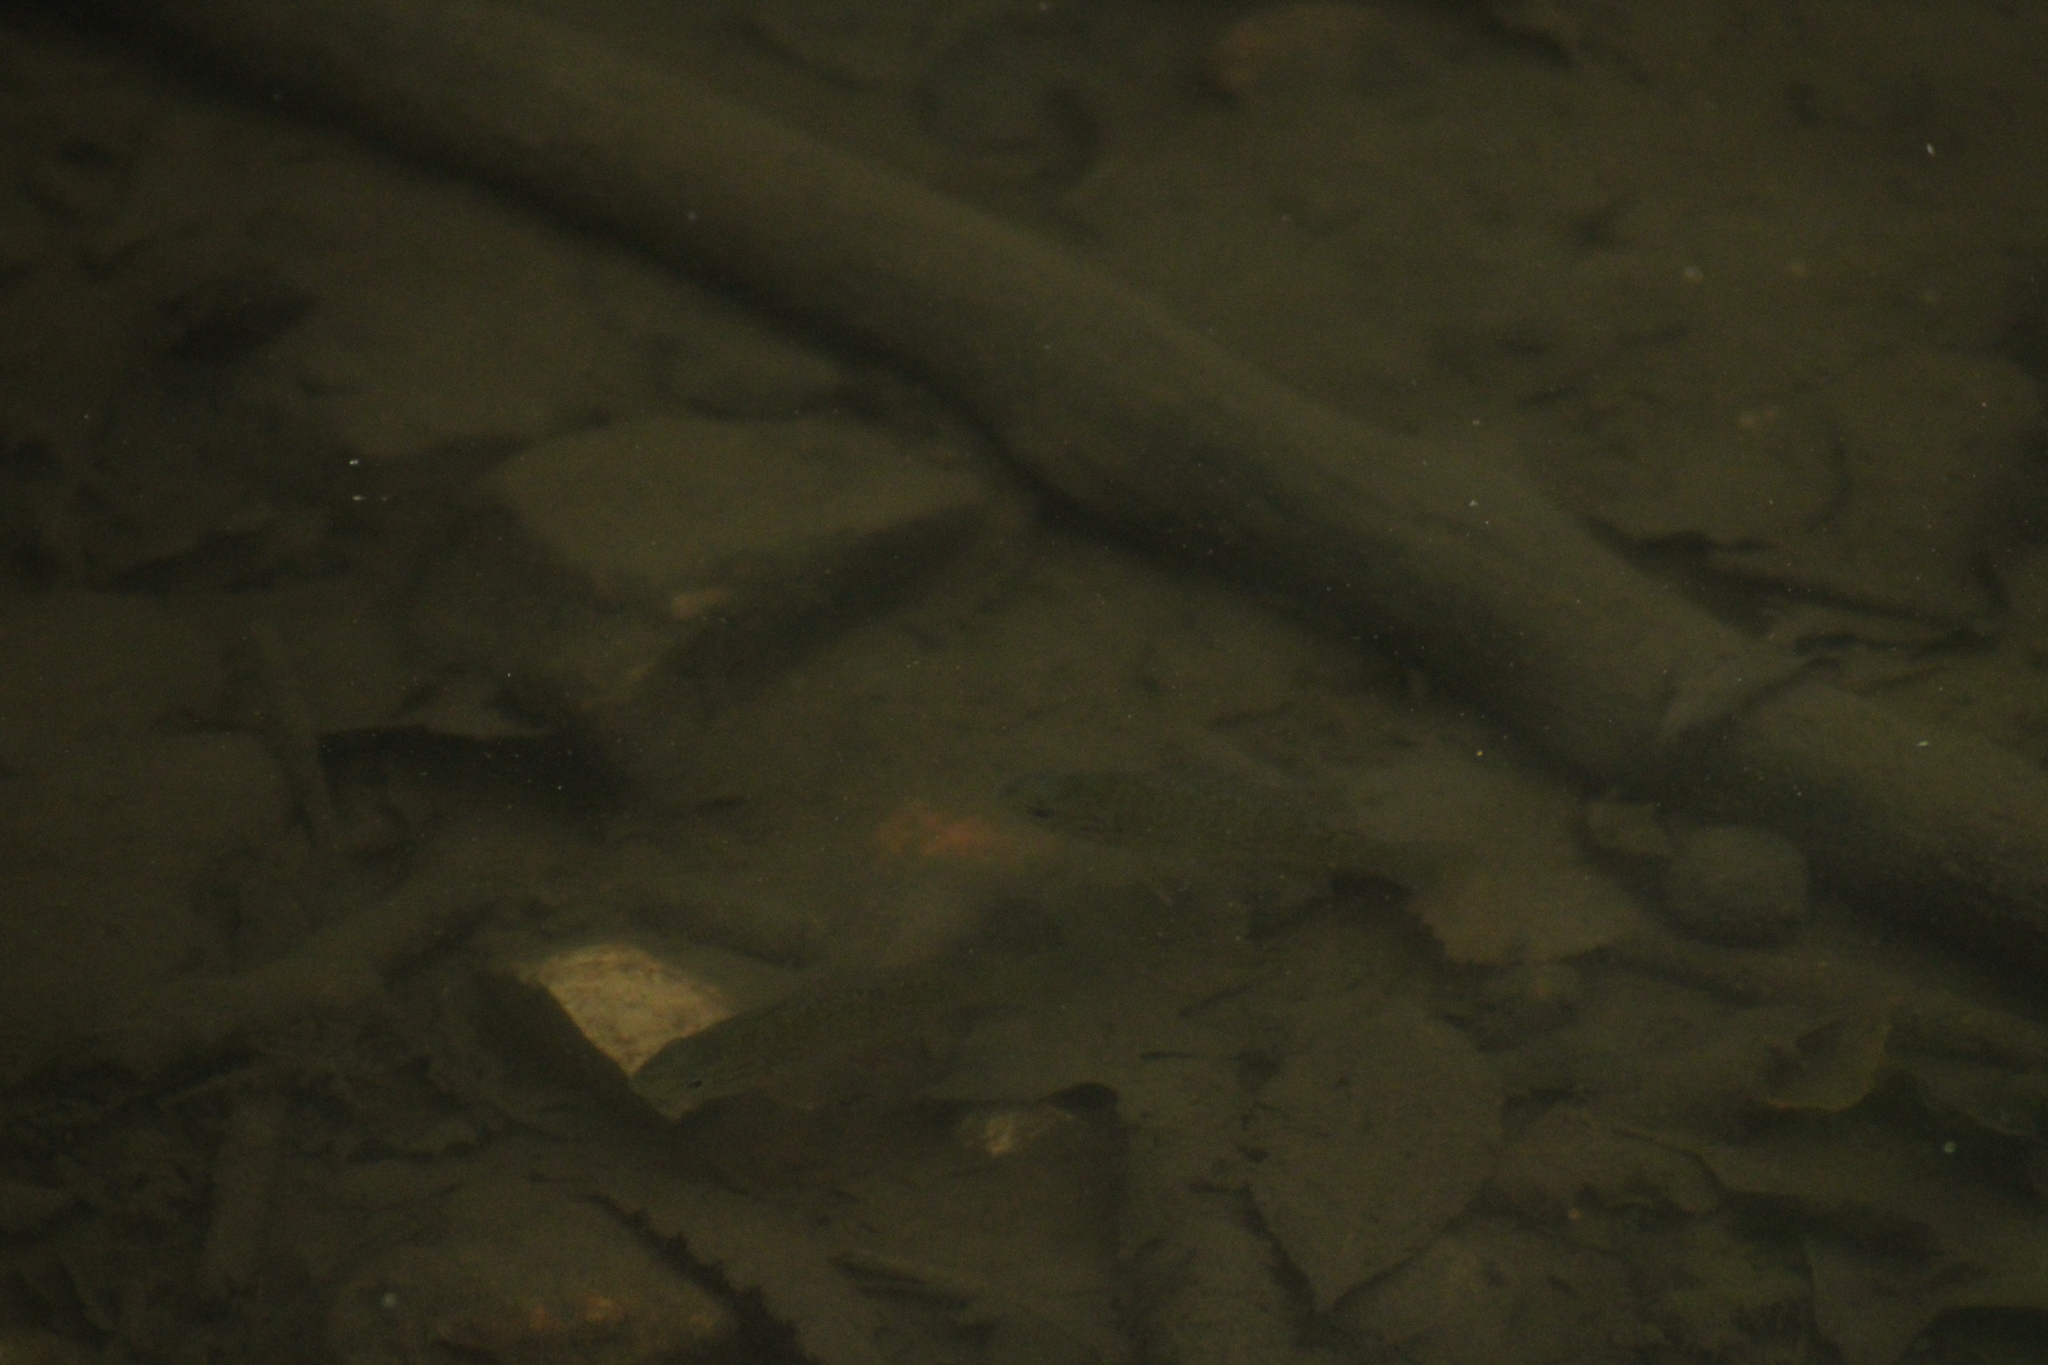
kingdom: Animalia
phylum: Chordata
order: Perciformes
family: Centrarchidae
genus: Lepomis
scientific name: Lepomis gibbosus
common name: Pumpkinseed
